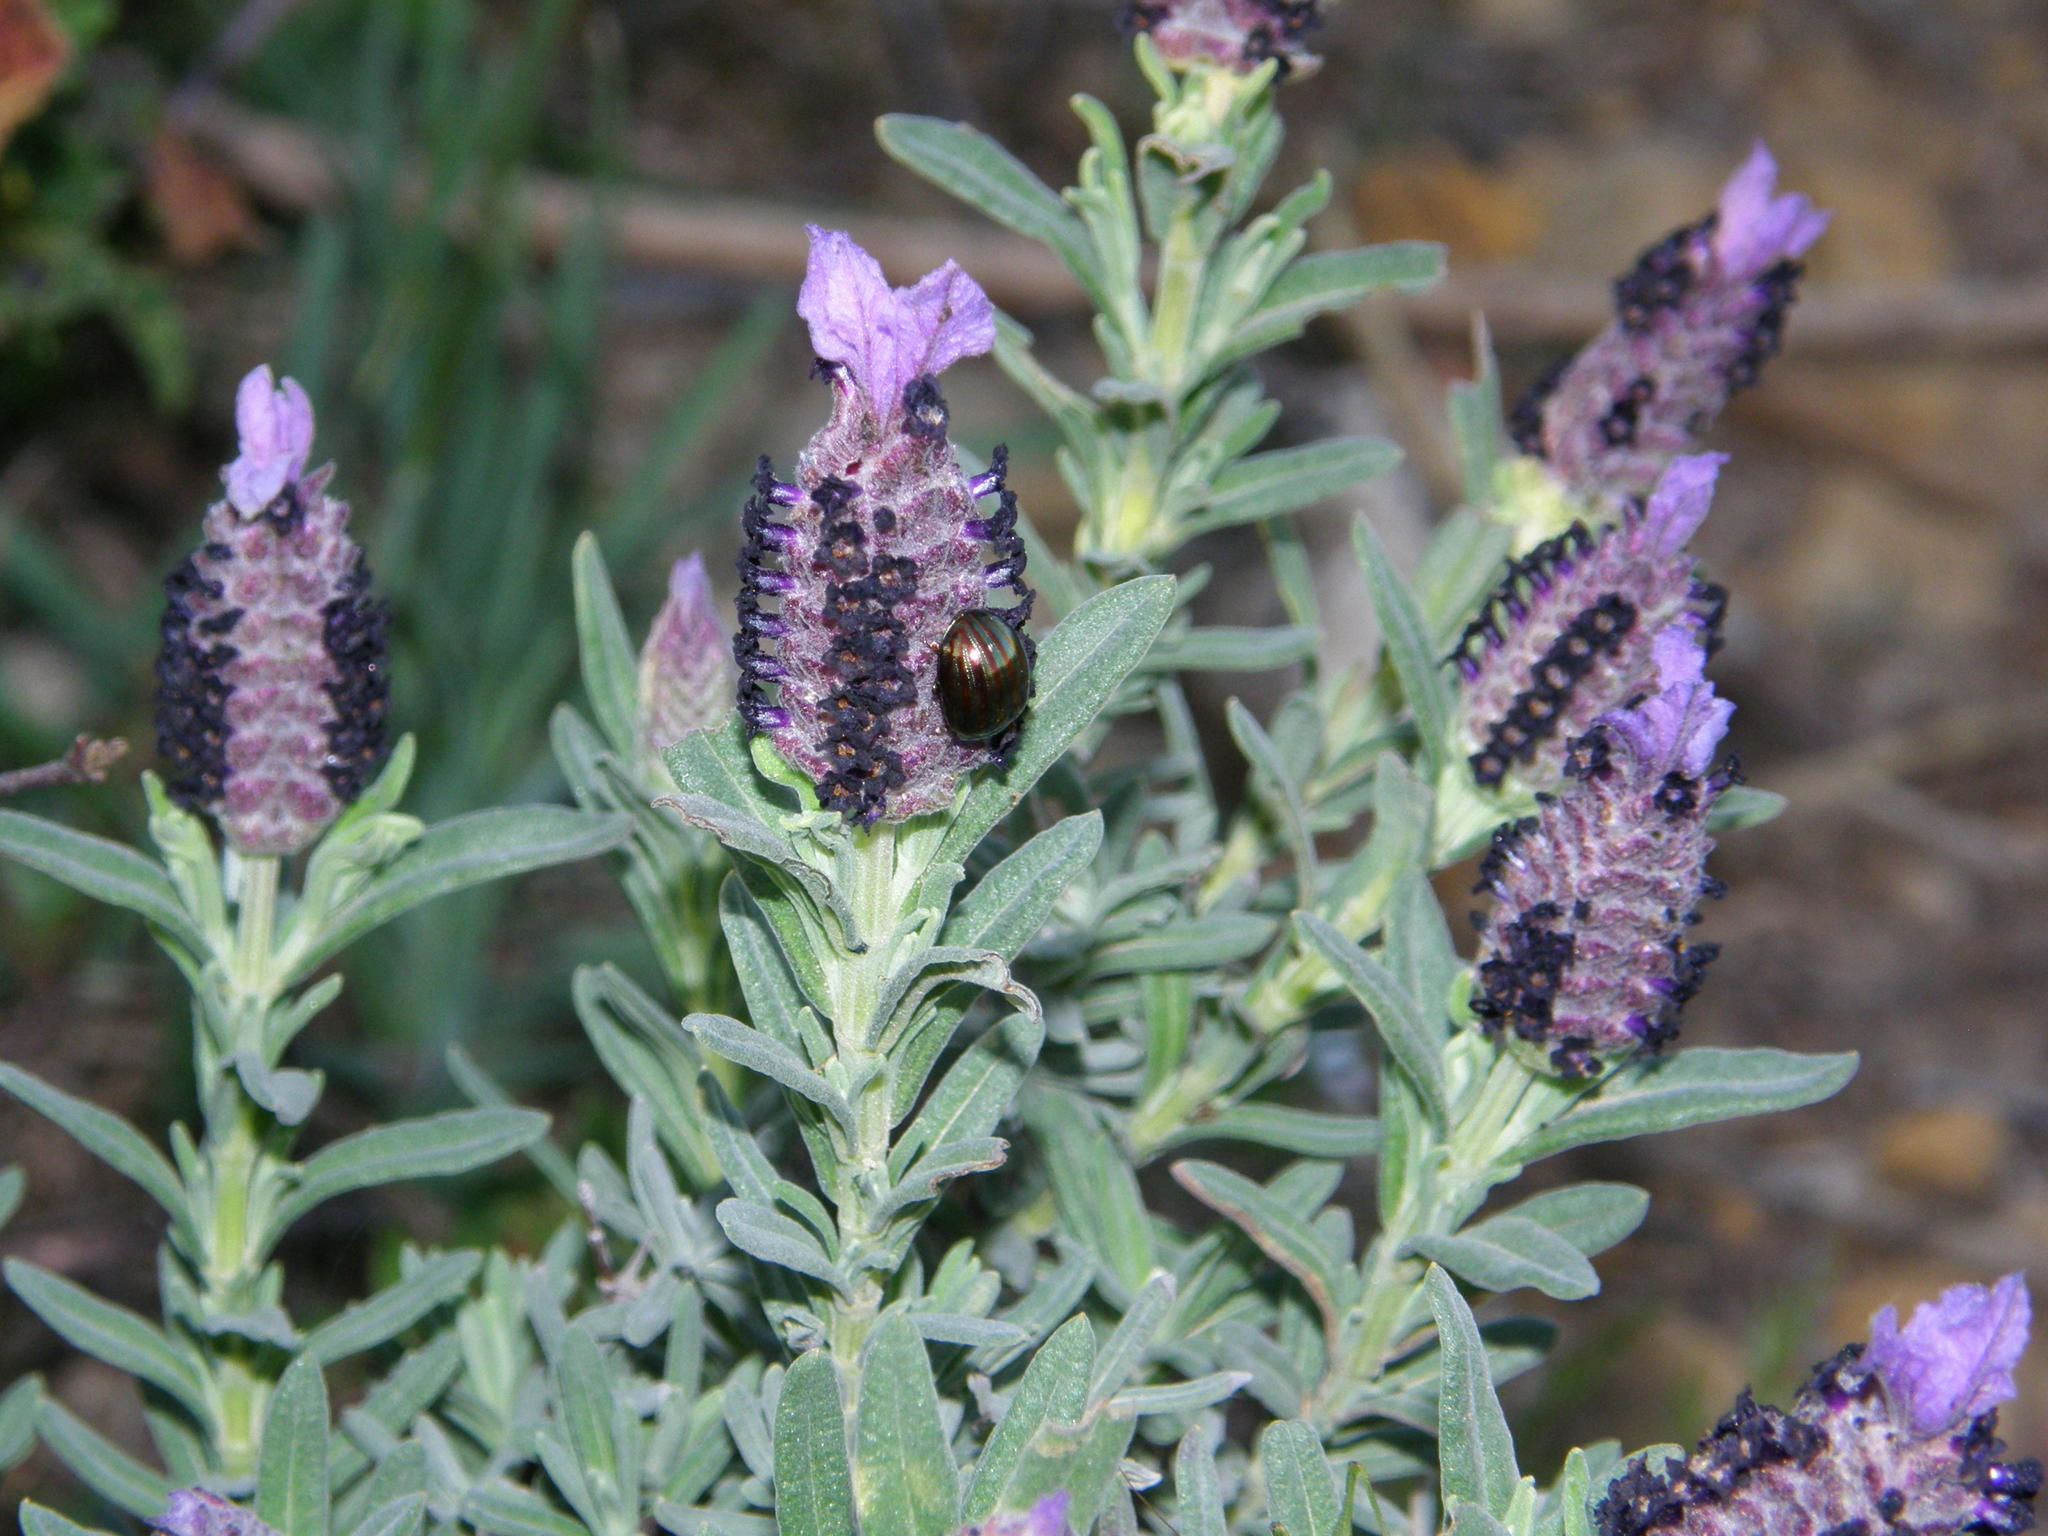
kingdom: Plantae
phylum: Tracheophyta
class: Magnoliopsida
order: Lamiales
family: Lamiaceae
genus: Lavandula
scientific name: Lavandula stoechas
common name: French lavender
